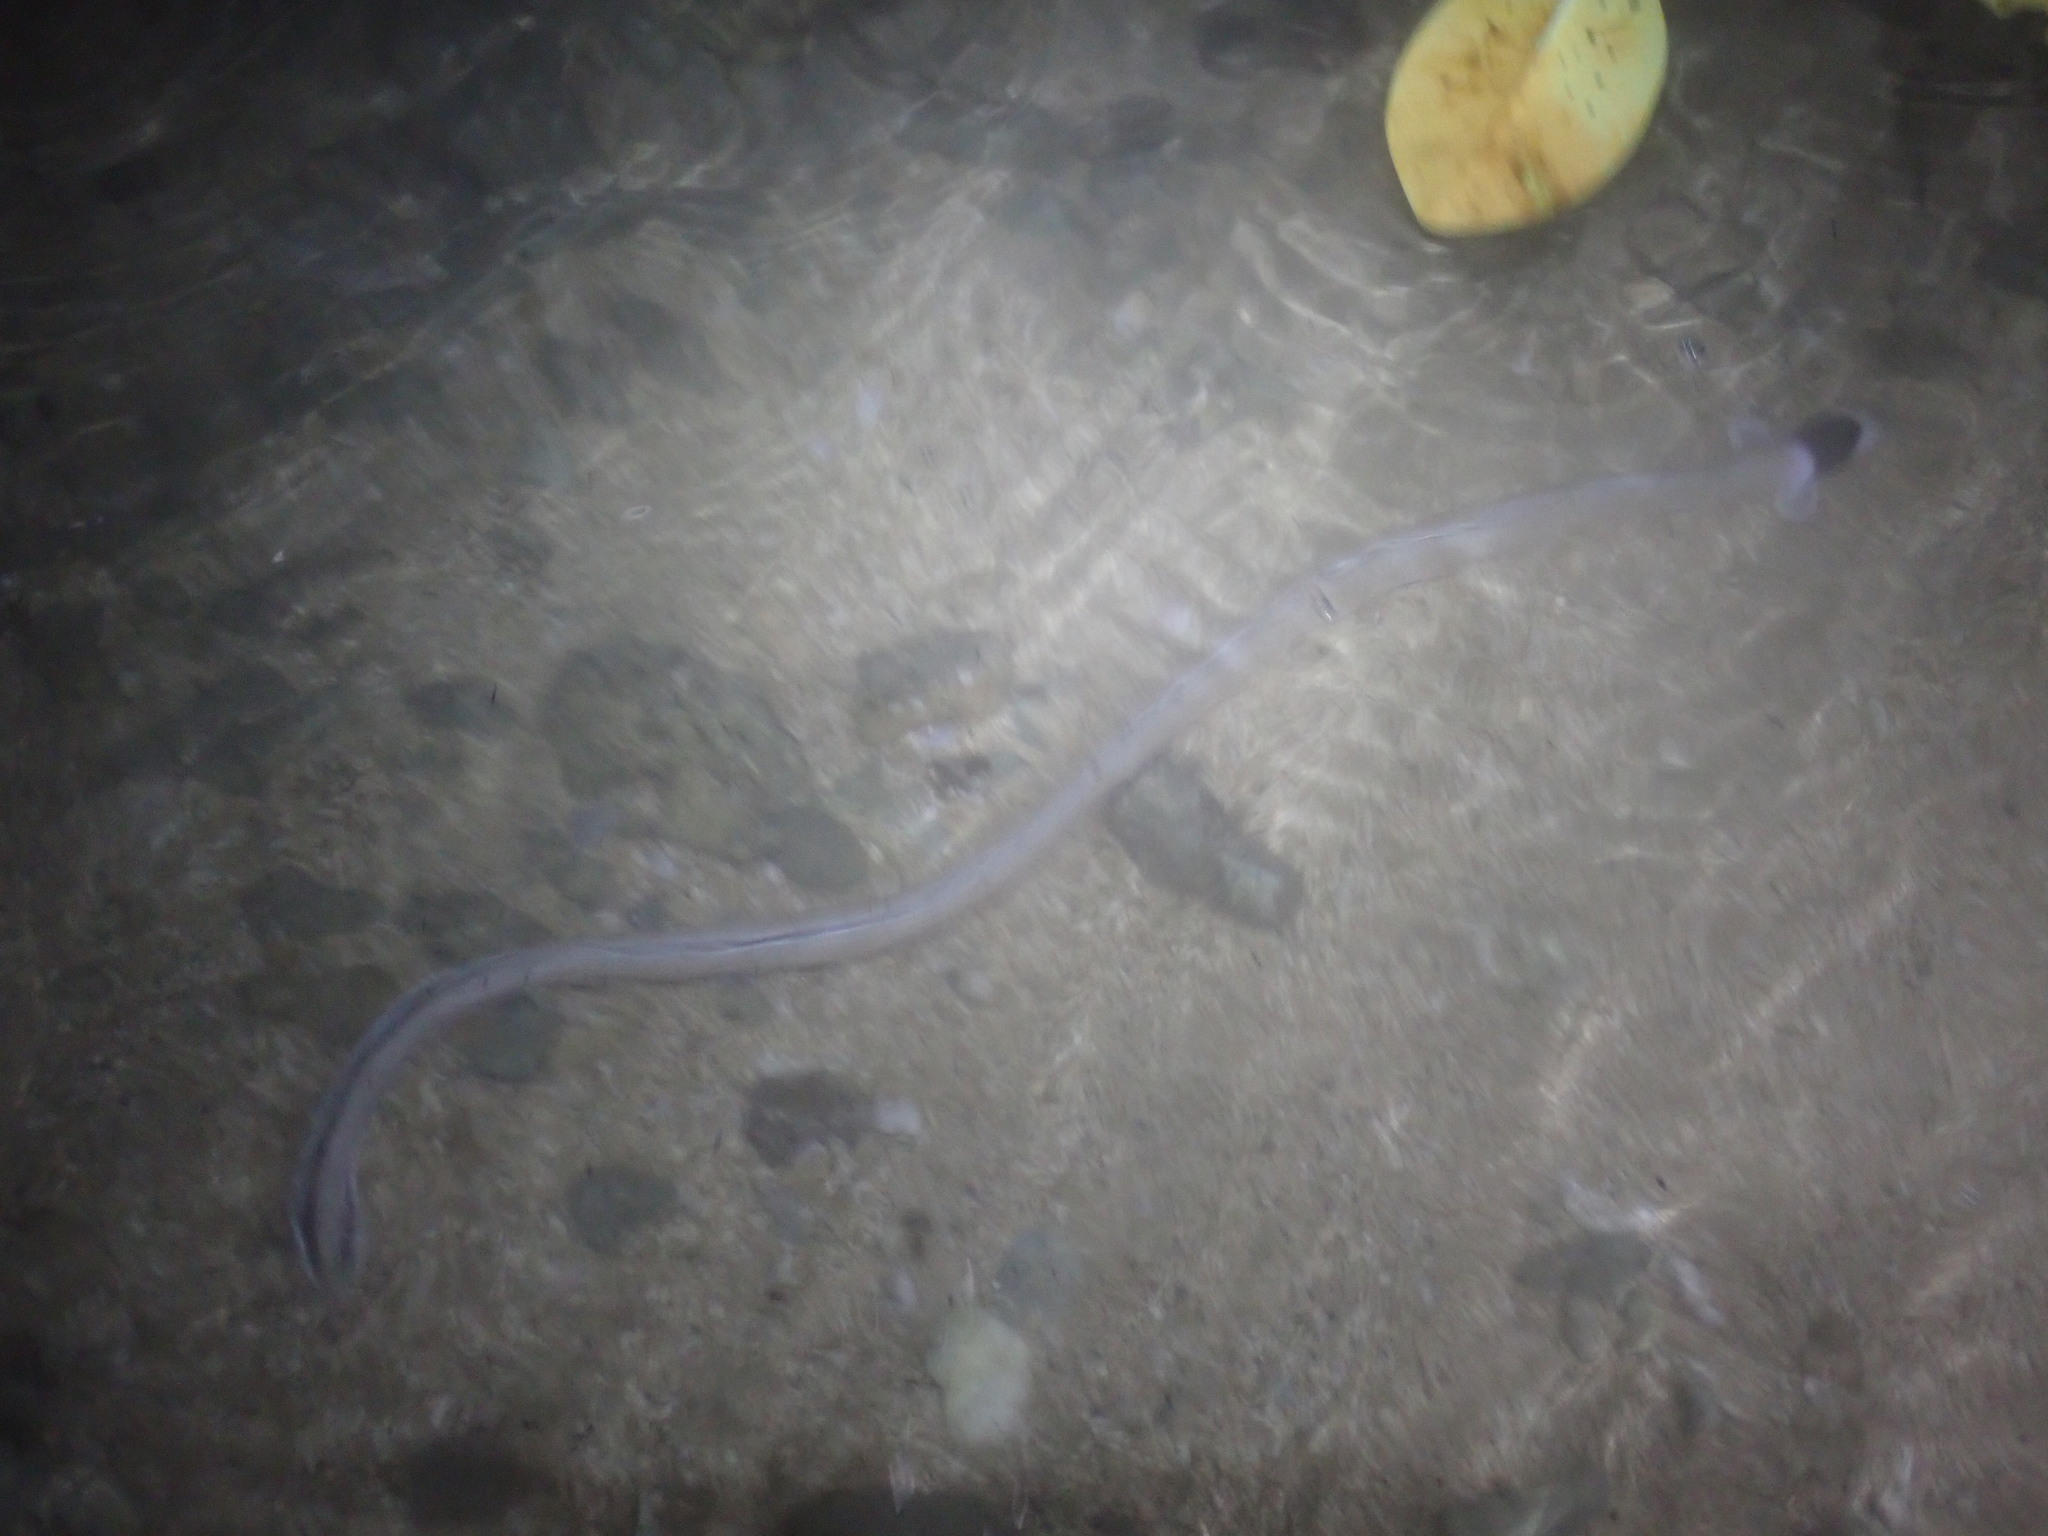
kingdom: Animalia
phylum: Chordata
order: Anguilliformes
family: Ophichthidae
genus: Ophichthus
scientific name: Ophichthus cephalozona
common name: Dark-shouldered snake eel
